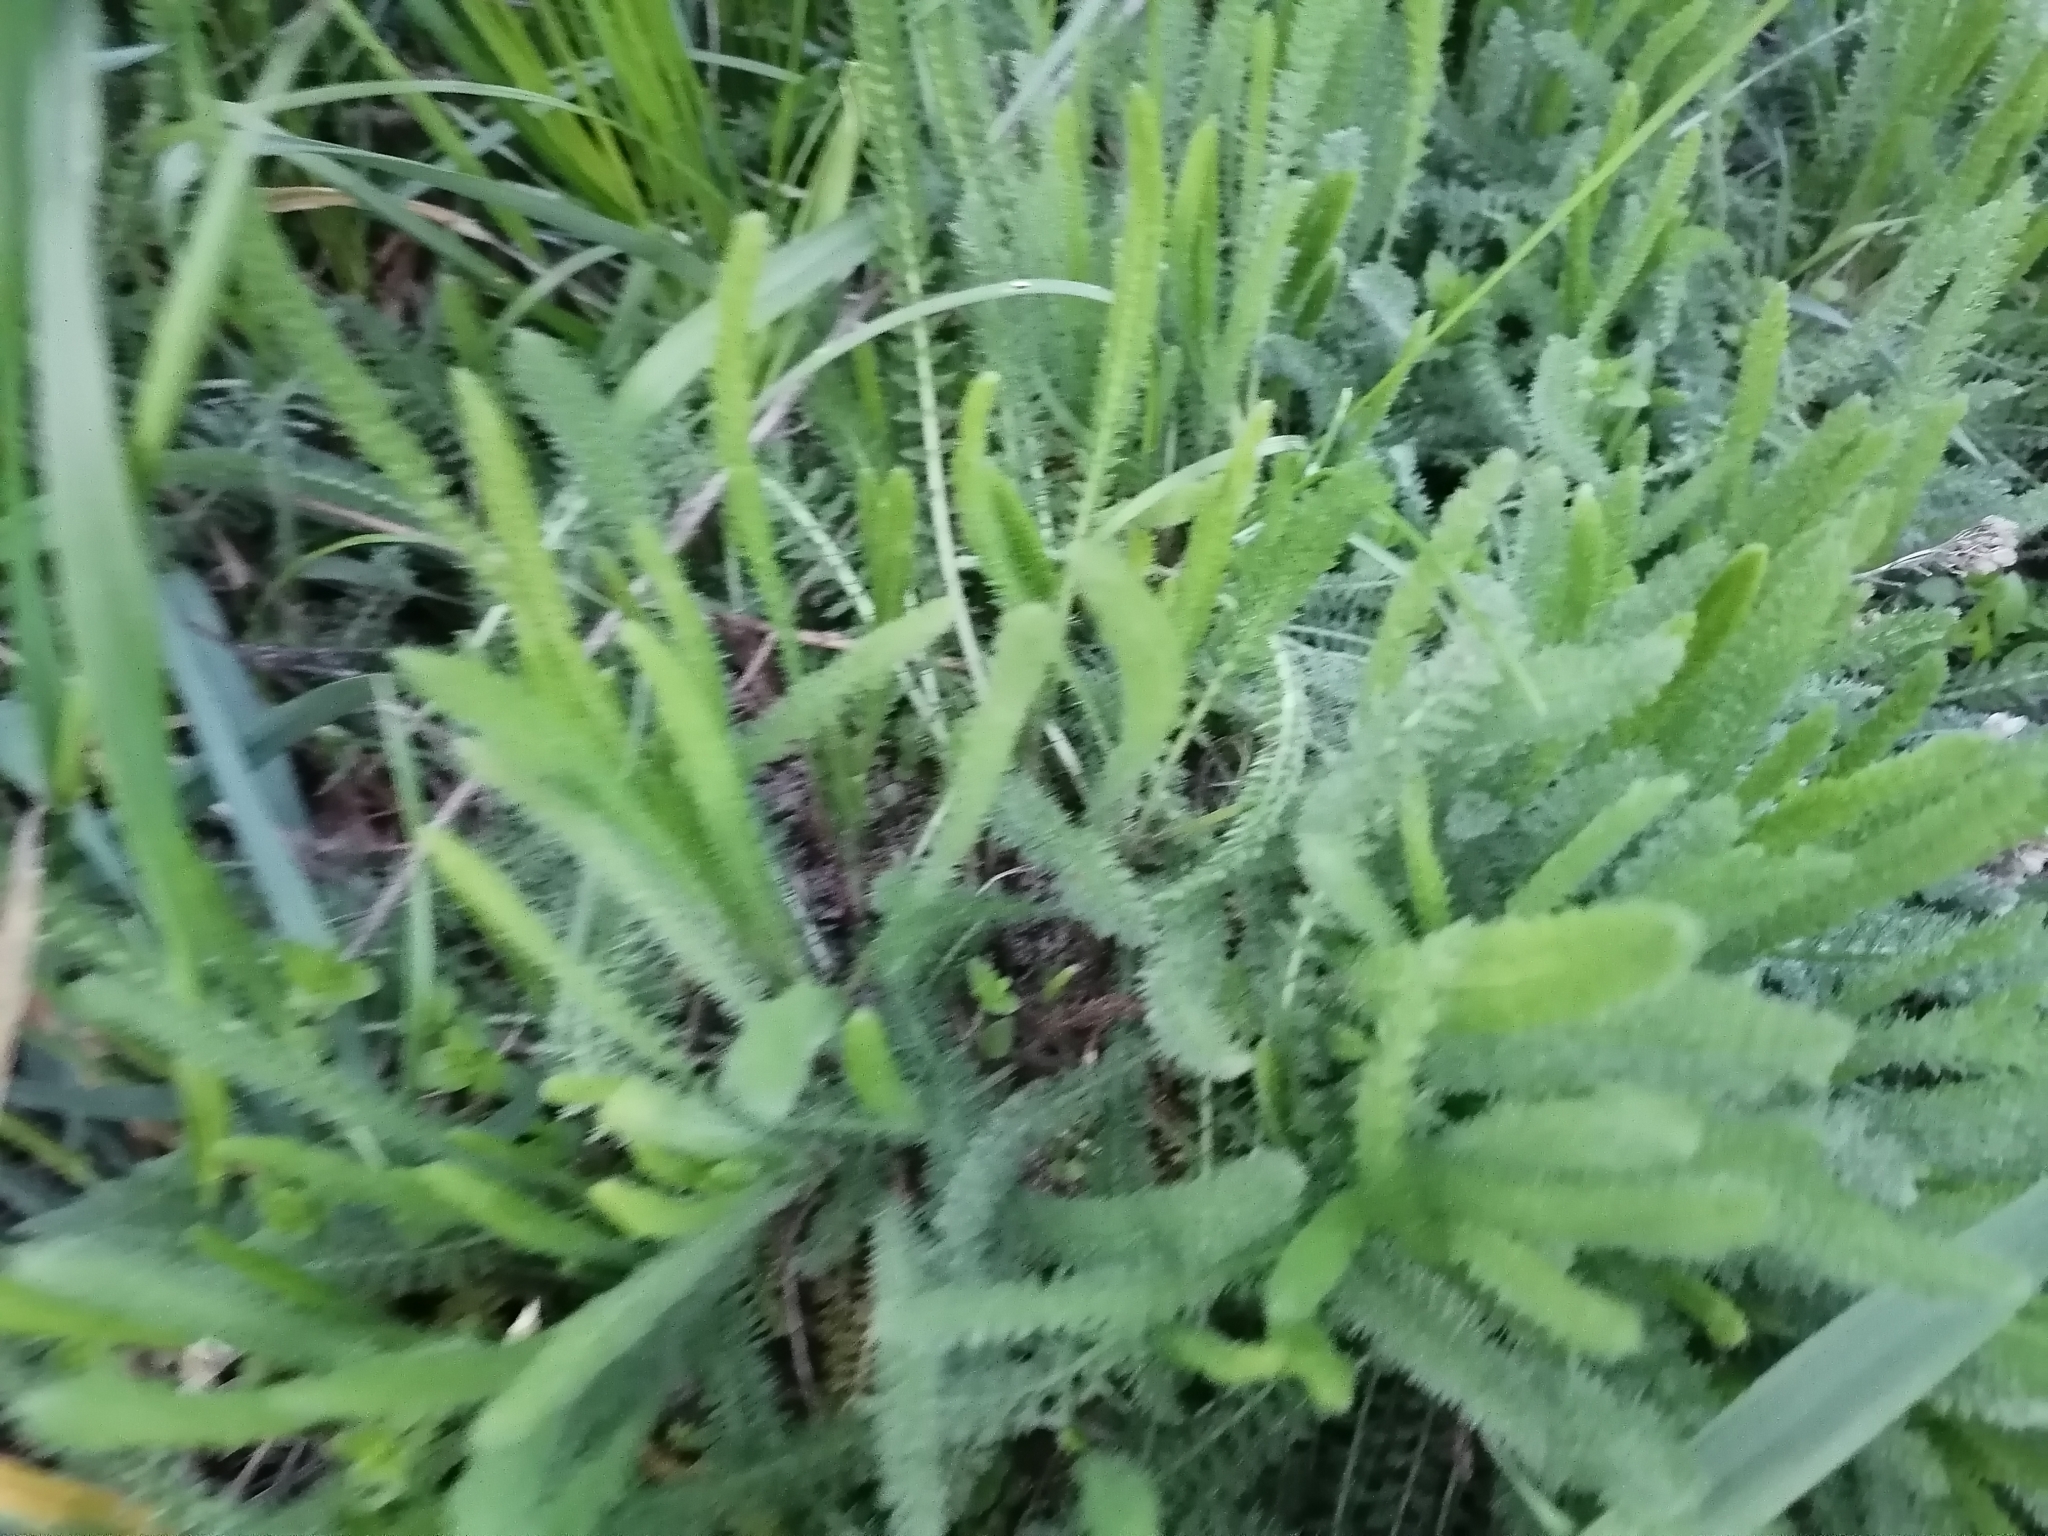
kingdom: Plantae
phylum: Tracheophyta
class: Magnoliopsida
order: Asterales
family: Asteraceae
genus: Achillea
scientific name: Achillea millefolium
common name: Yarrow
